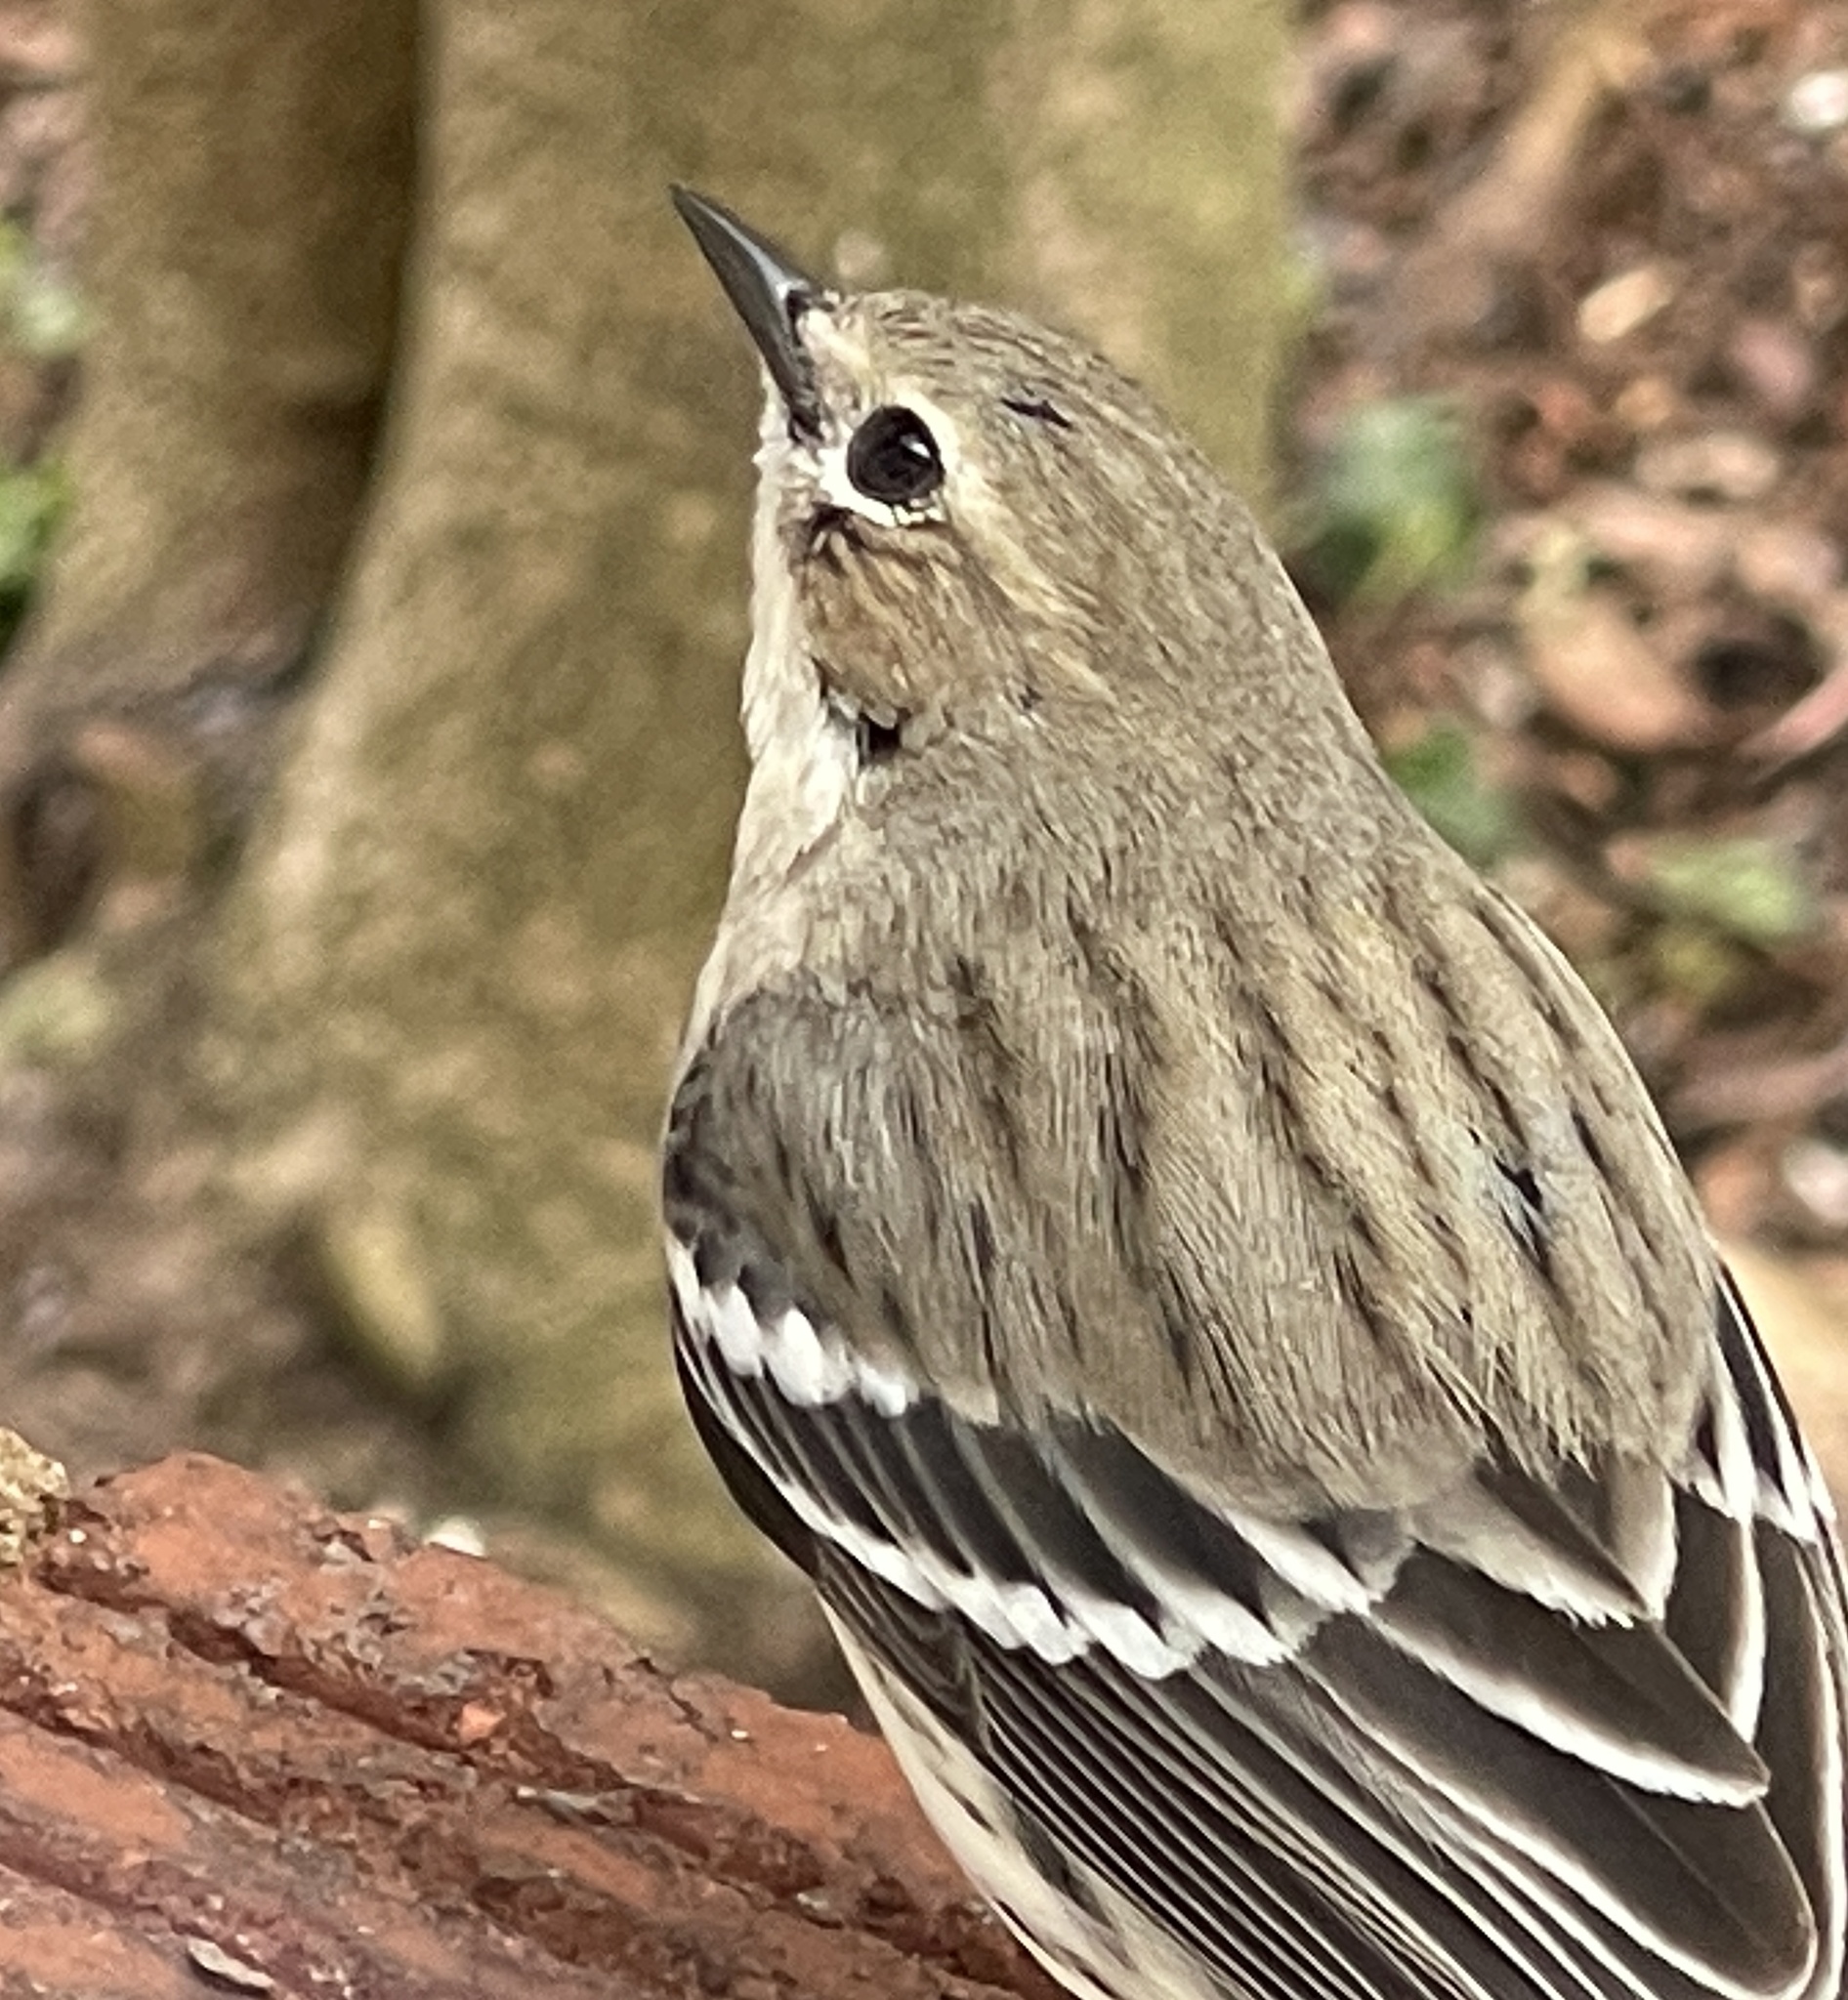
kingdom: Animalia
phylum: Chordata
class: Aves
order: Passeriformes
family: Parulidae
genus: Setophaga
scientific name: Setophaga coronata
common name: Myrtle warbler
